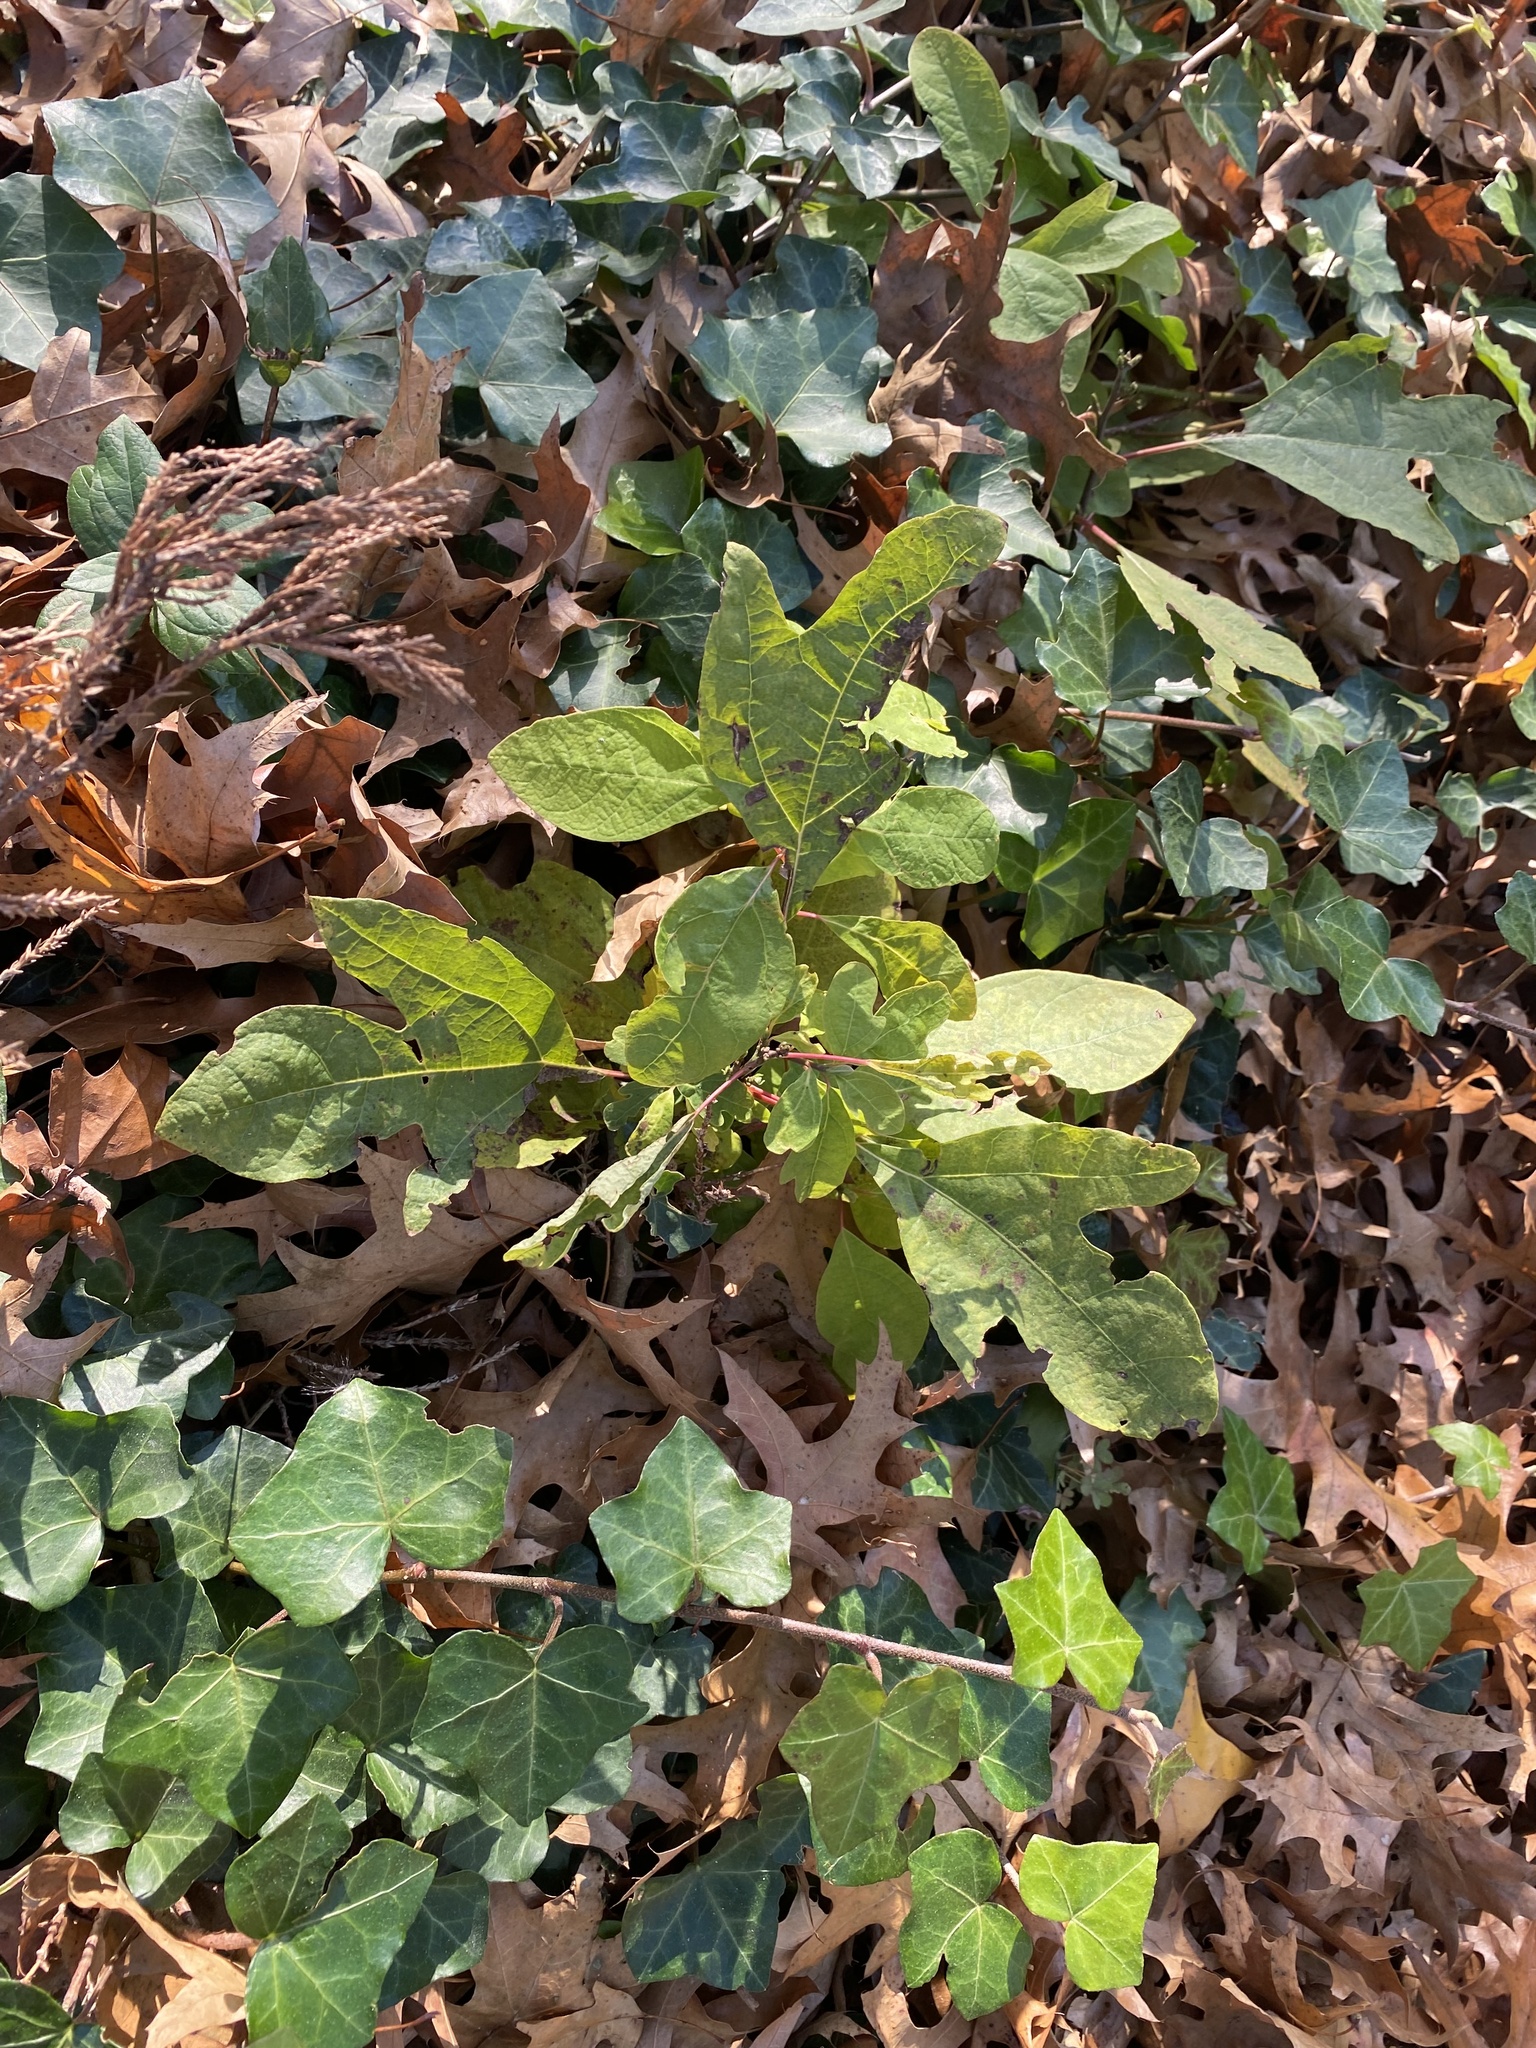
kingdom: Plantae
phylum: Tracheophyta
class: Magnoliopsida
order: Laurales
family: Lauraceae
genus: Sassafras
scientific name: Sassafras albidum
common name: Sassafras
